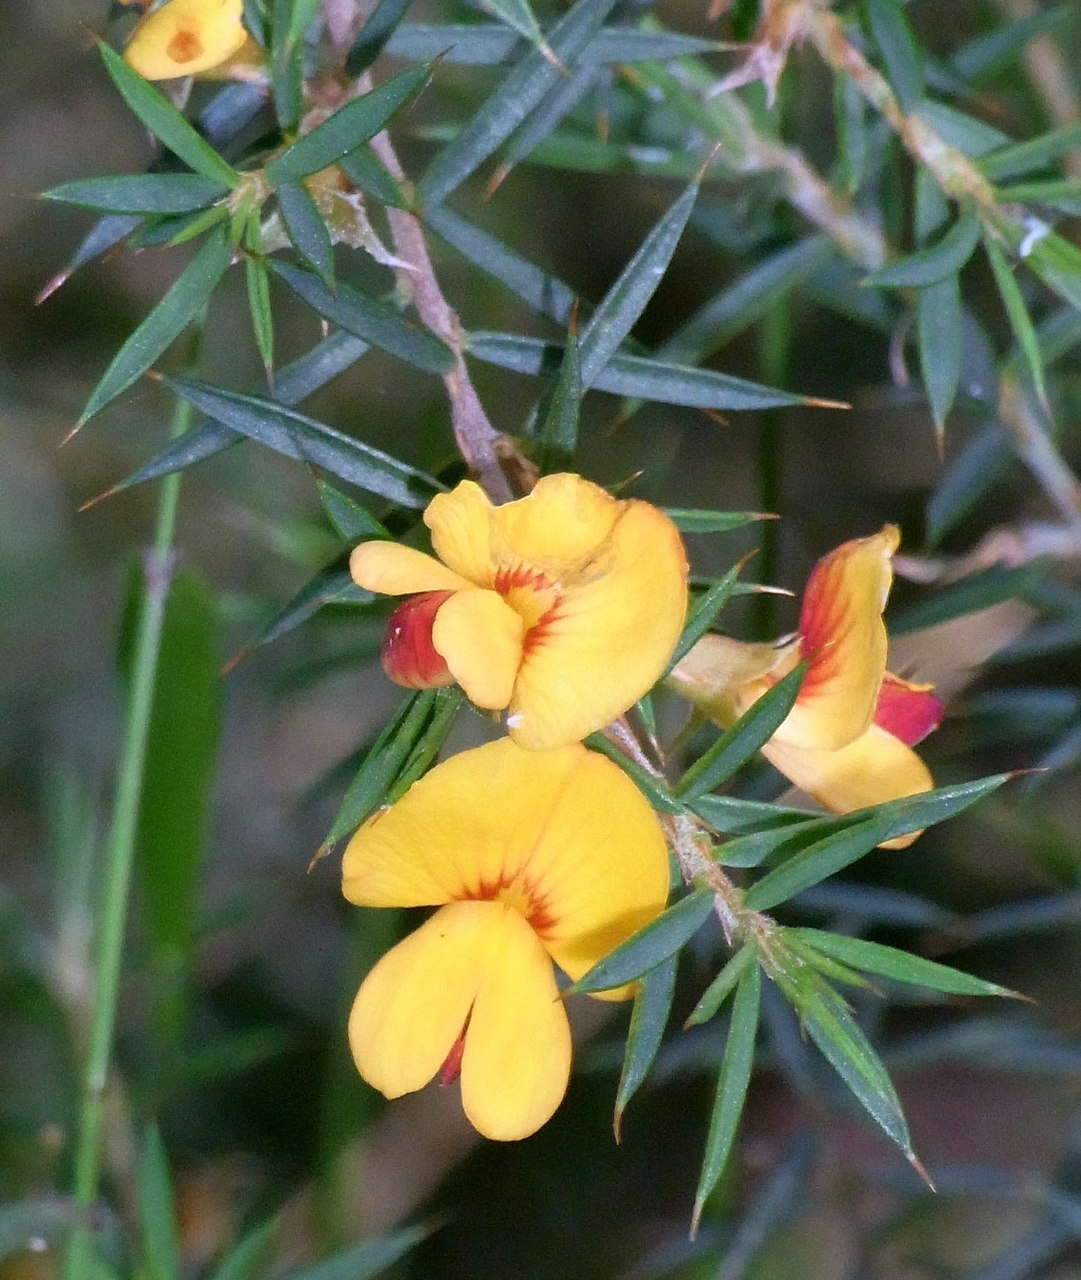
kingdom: Plantae
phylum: Tracheophyta
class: Magnoliopsida
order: Fabales
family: Fabaceae
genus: Pultenaea
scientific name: Pultenaea juniperina
